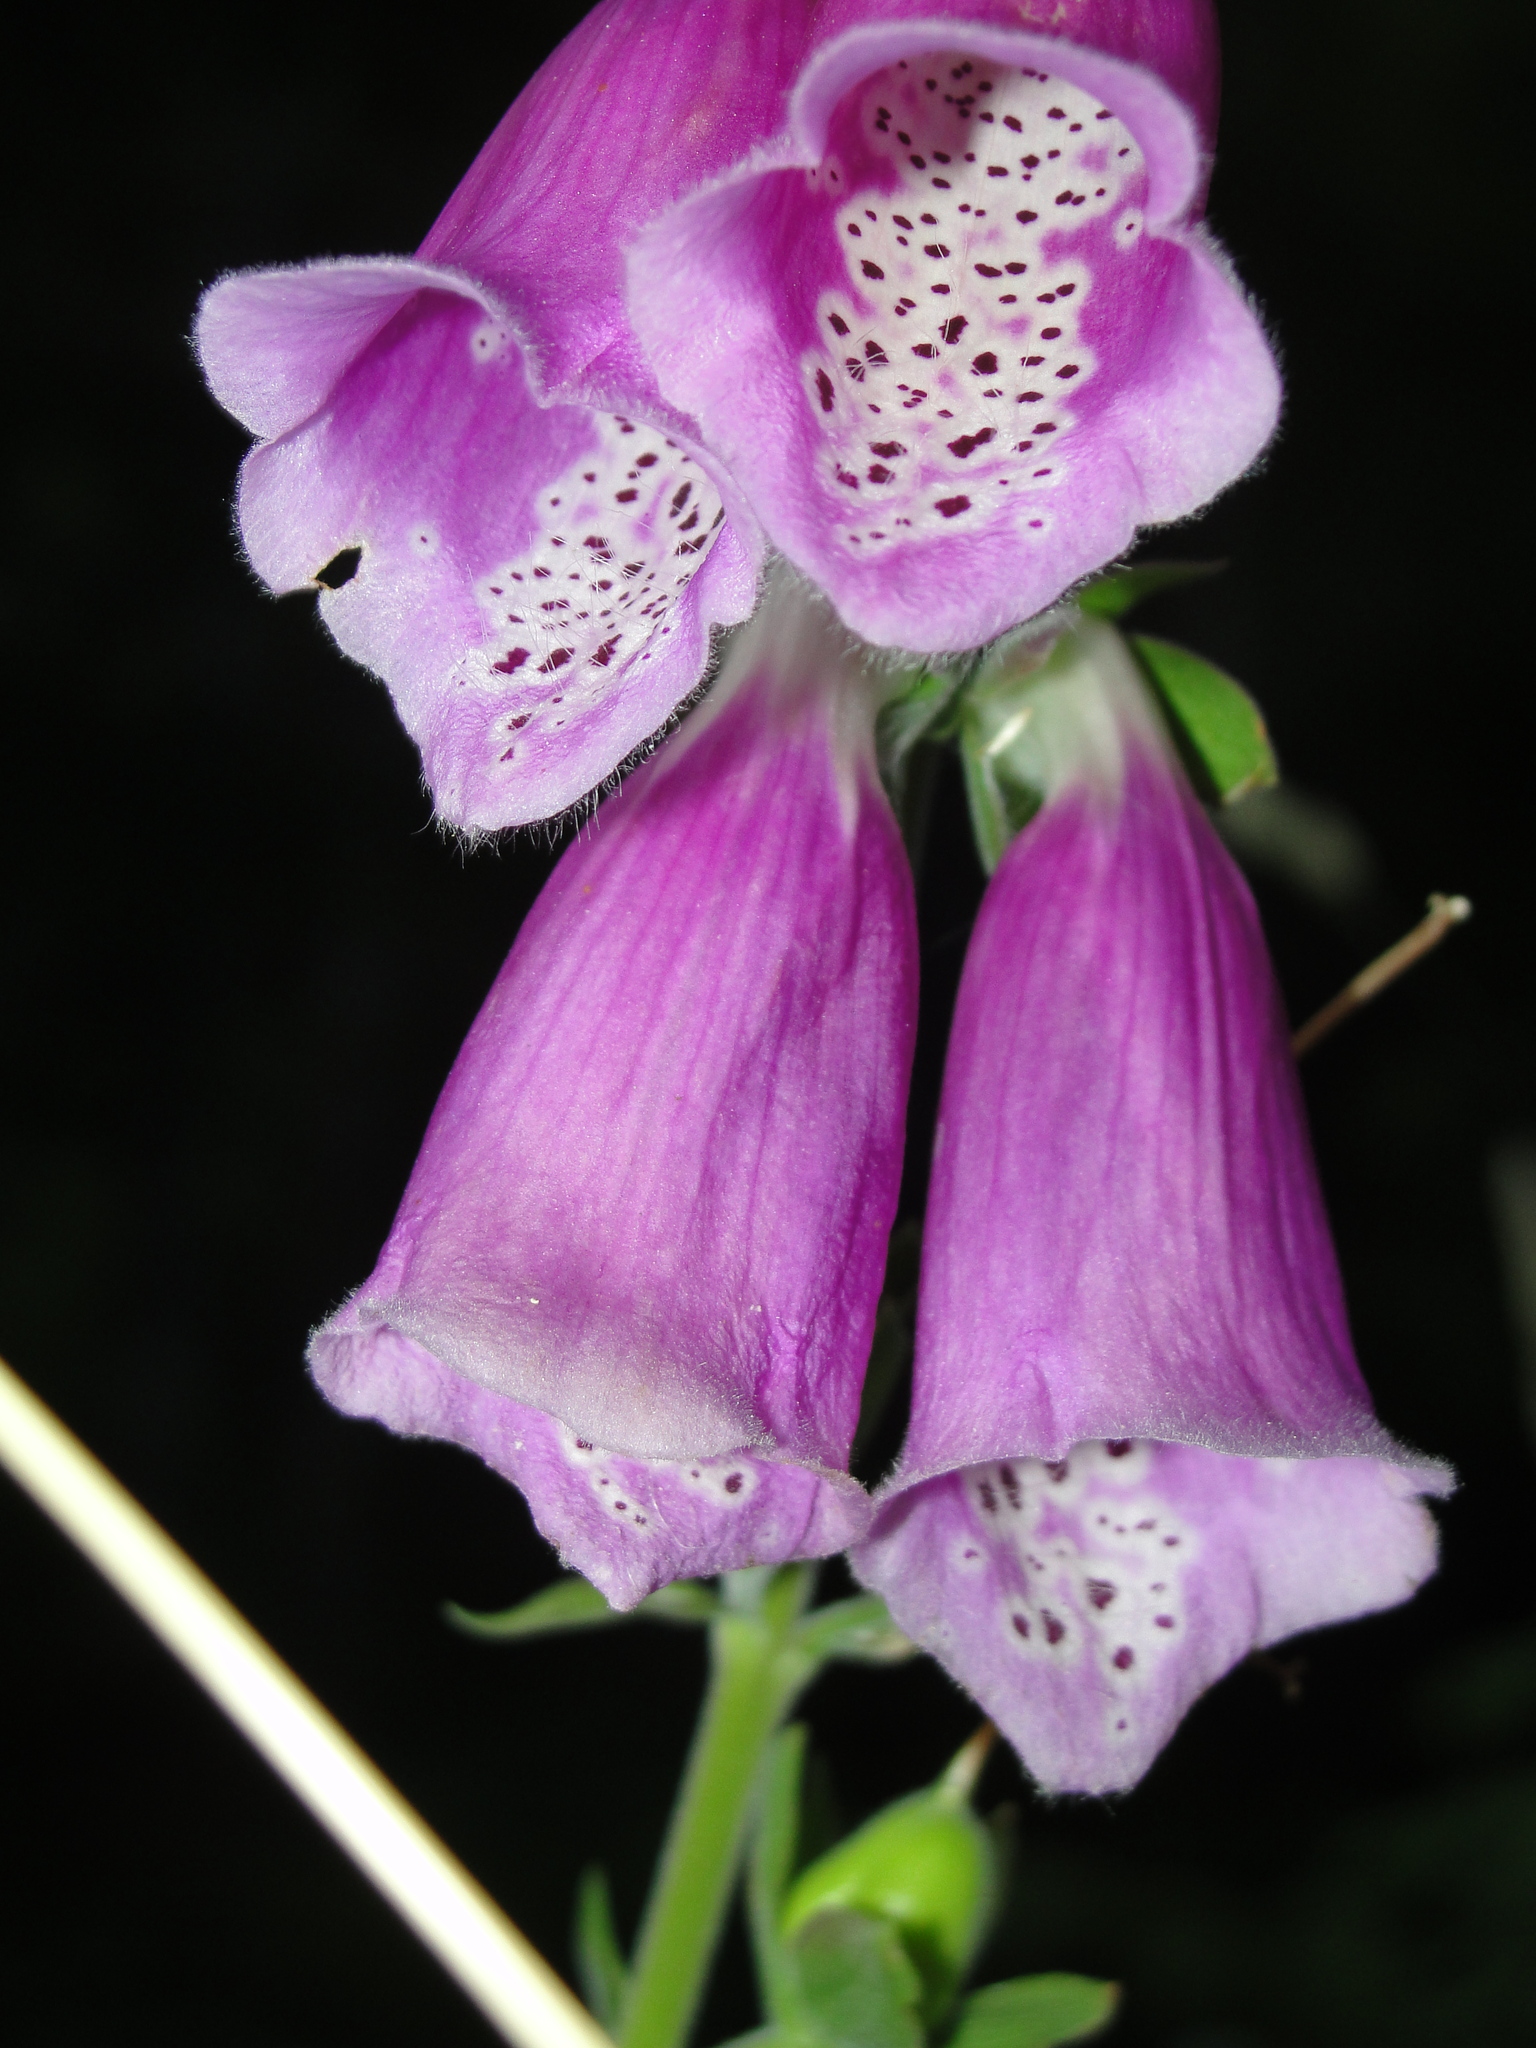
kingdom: Plantae
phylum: Tracheophyta
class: Magnoliopsida
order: Lamiales
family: Plantaginaceae
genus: Digitalis
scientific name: Digitalis purpurea
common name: Foxglove
